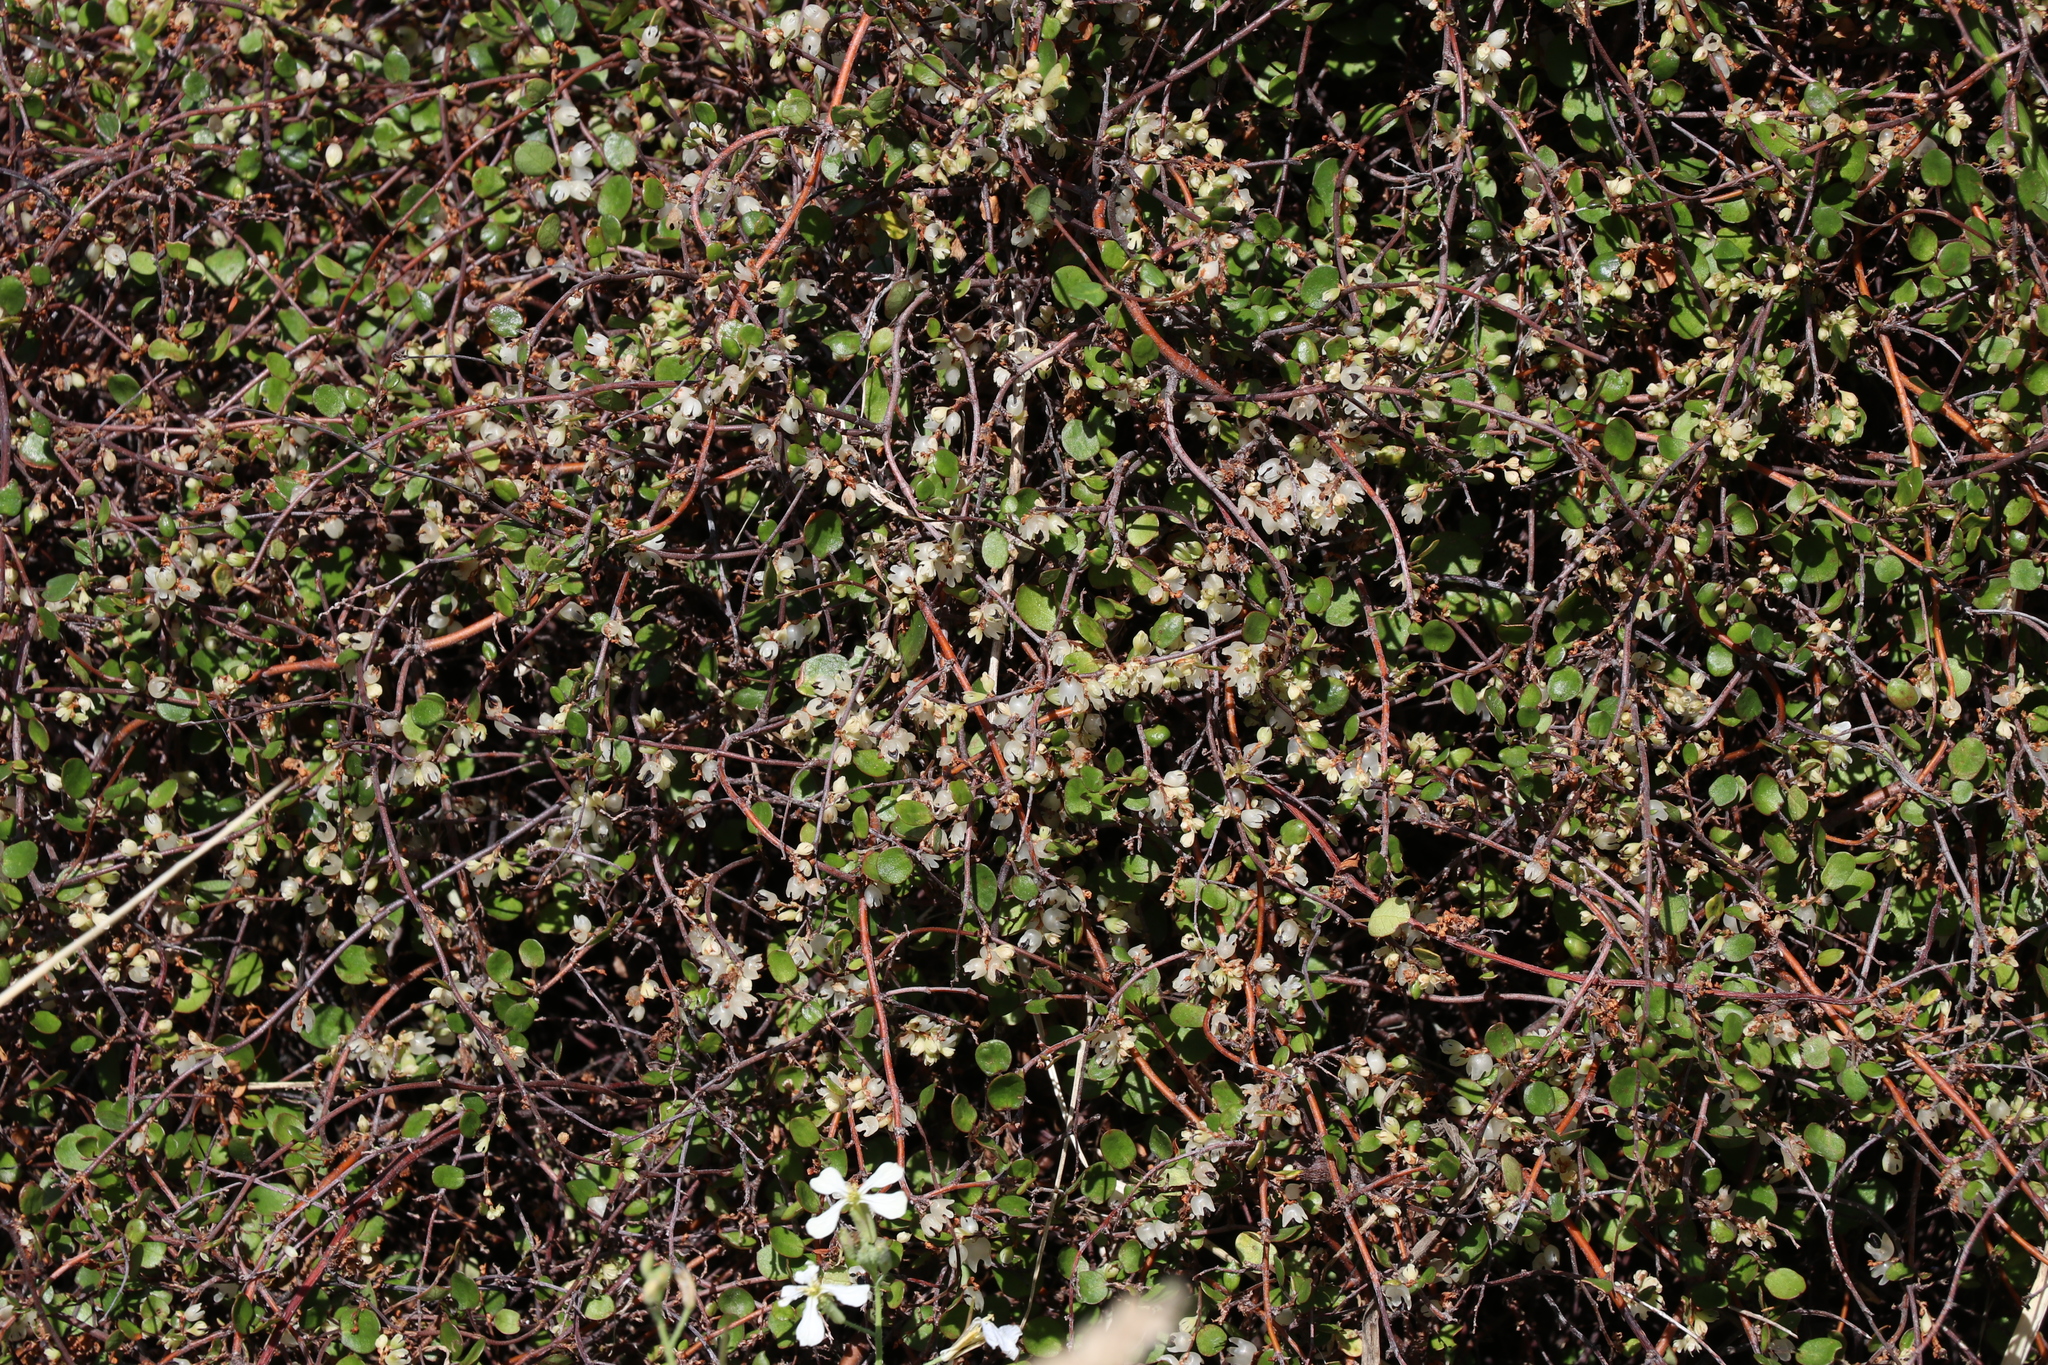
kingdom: Plantae
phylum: Tracheophyta
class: Magnoliopsida
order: Caryophyllales
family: Polygonaceae
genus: Muehlenbeckia
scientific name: Muehlenbeckia complexa
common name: Wireplant
